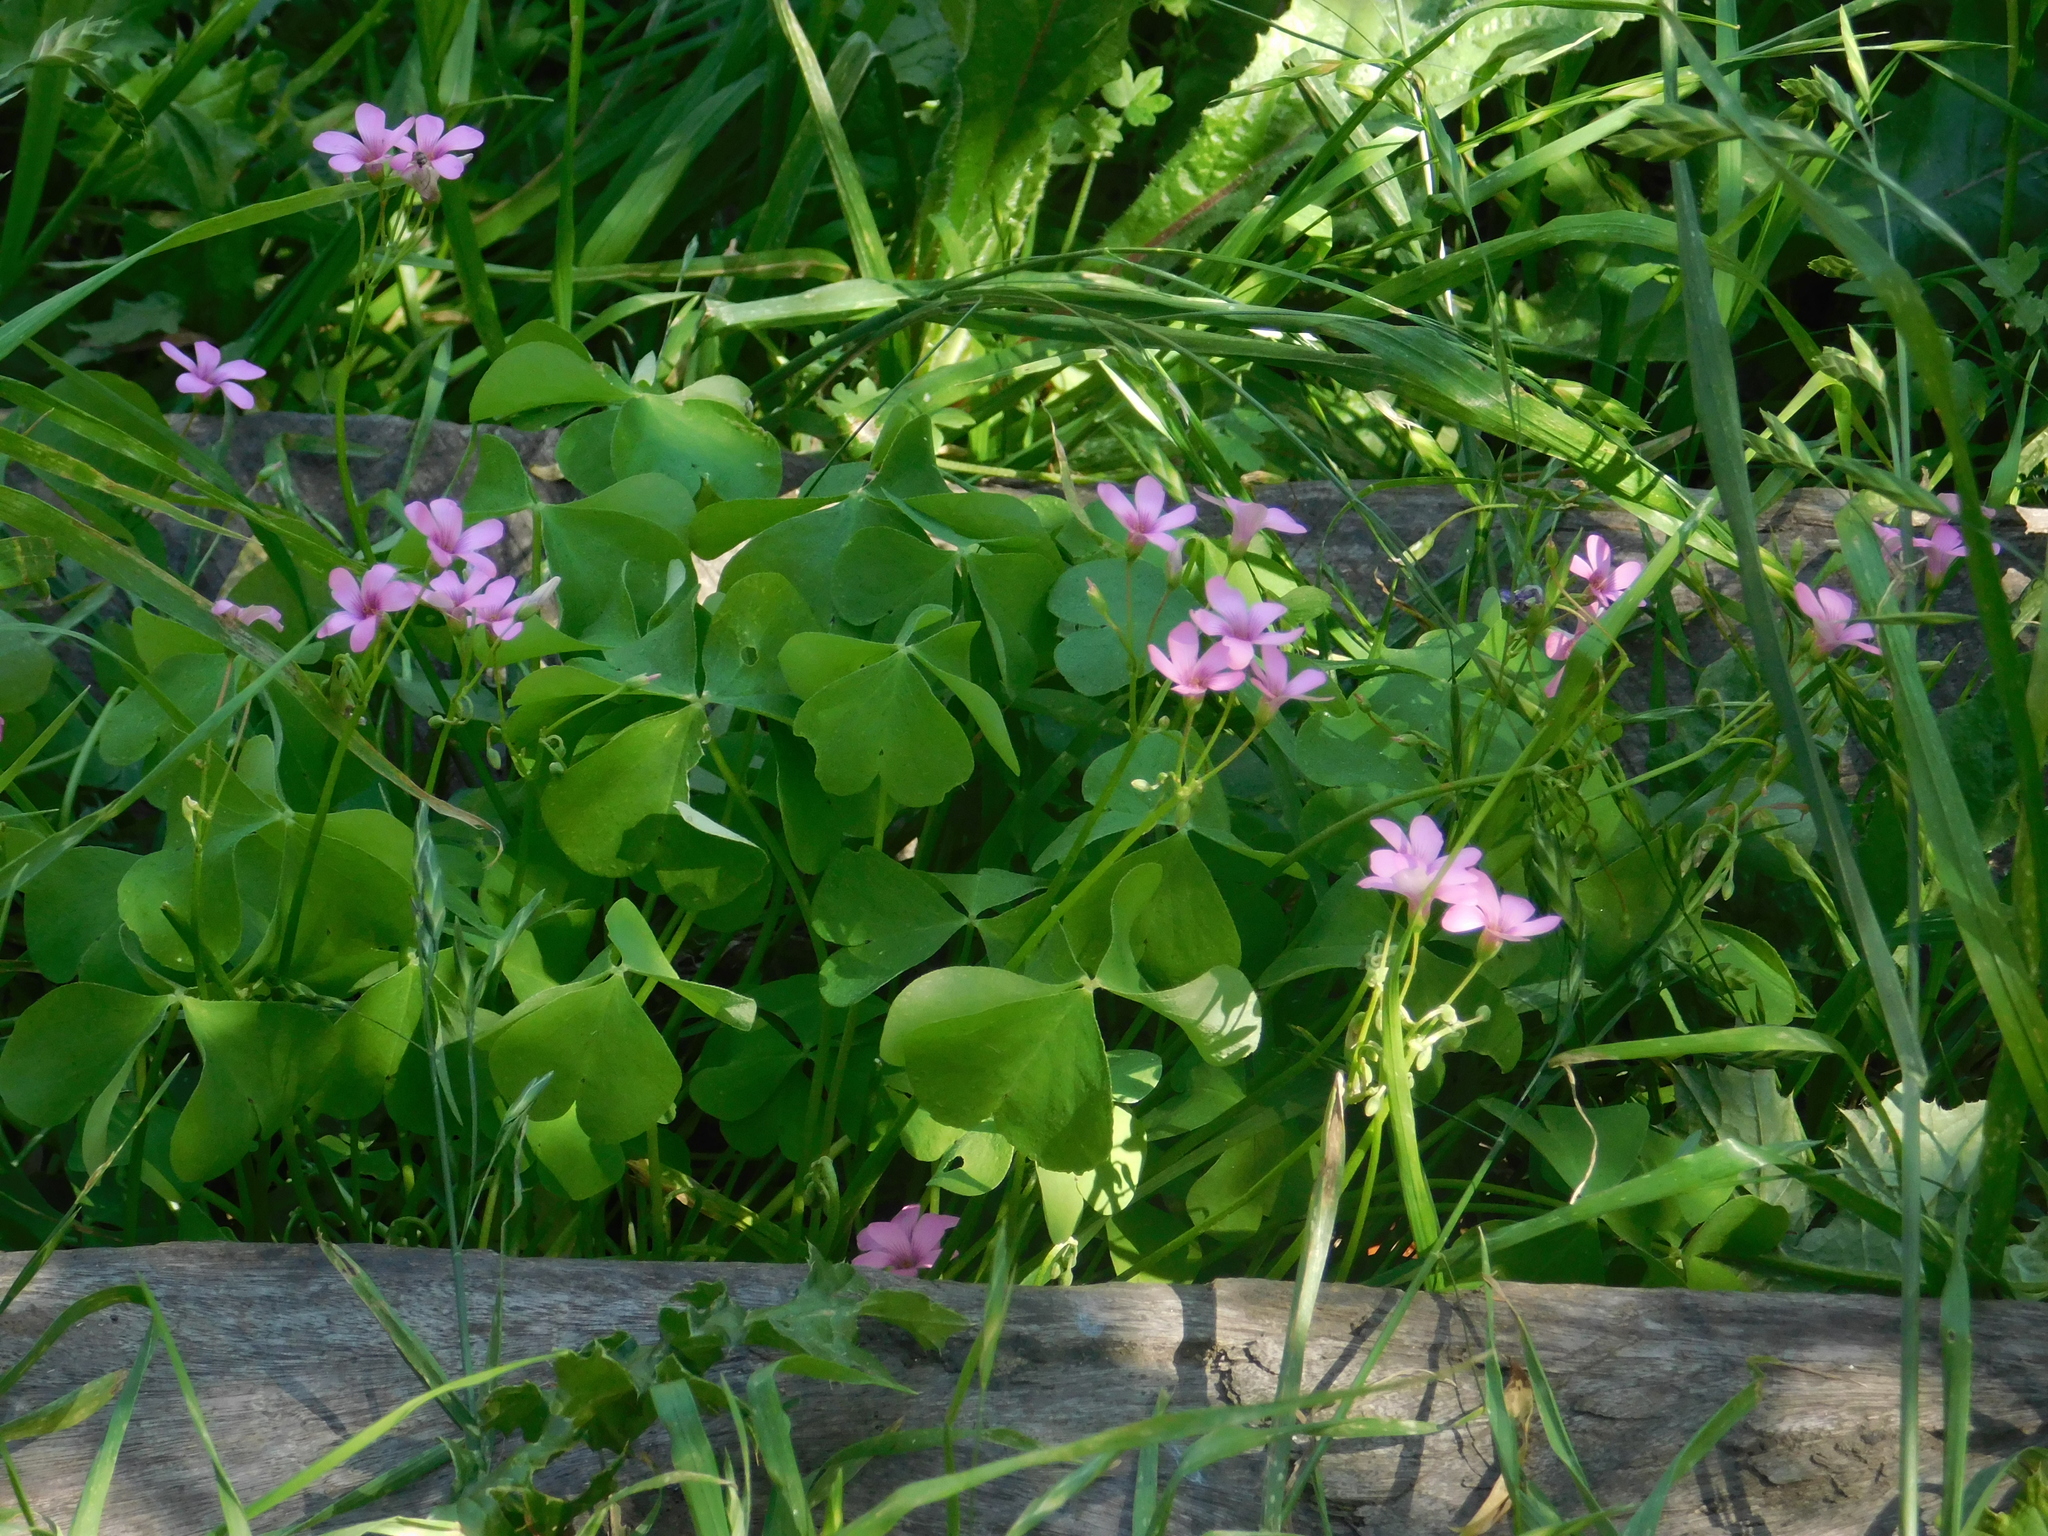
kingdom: Plantae
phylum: Tracheophyta
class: Magnoliopsida
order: Oxalidales
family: Oxalidaceae
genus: Oxalis
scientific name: Oxalis articulata
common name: Pink-sorrel
